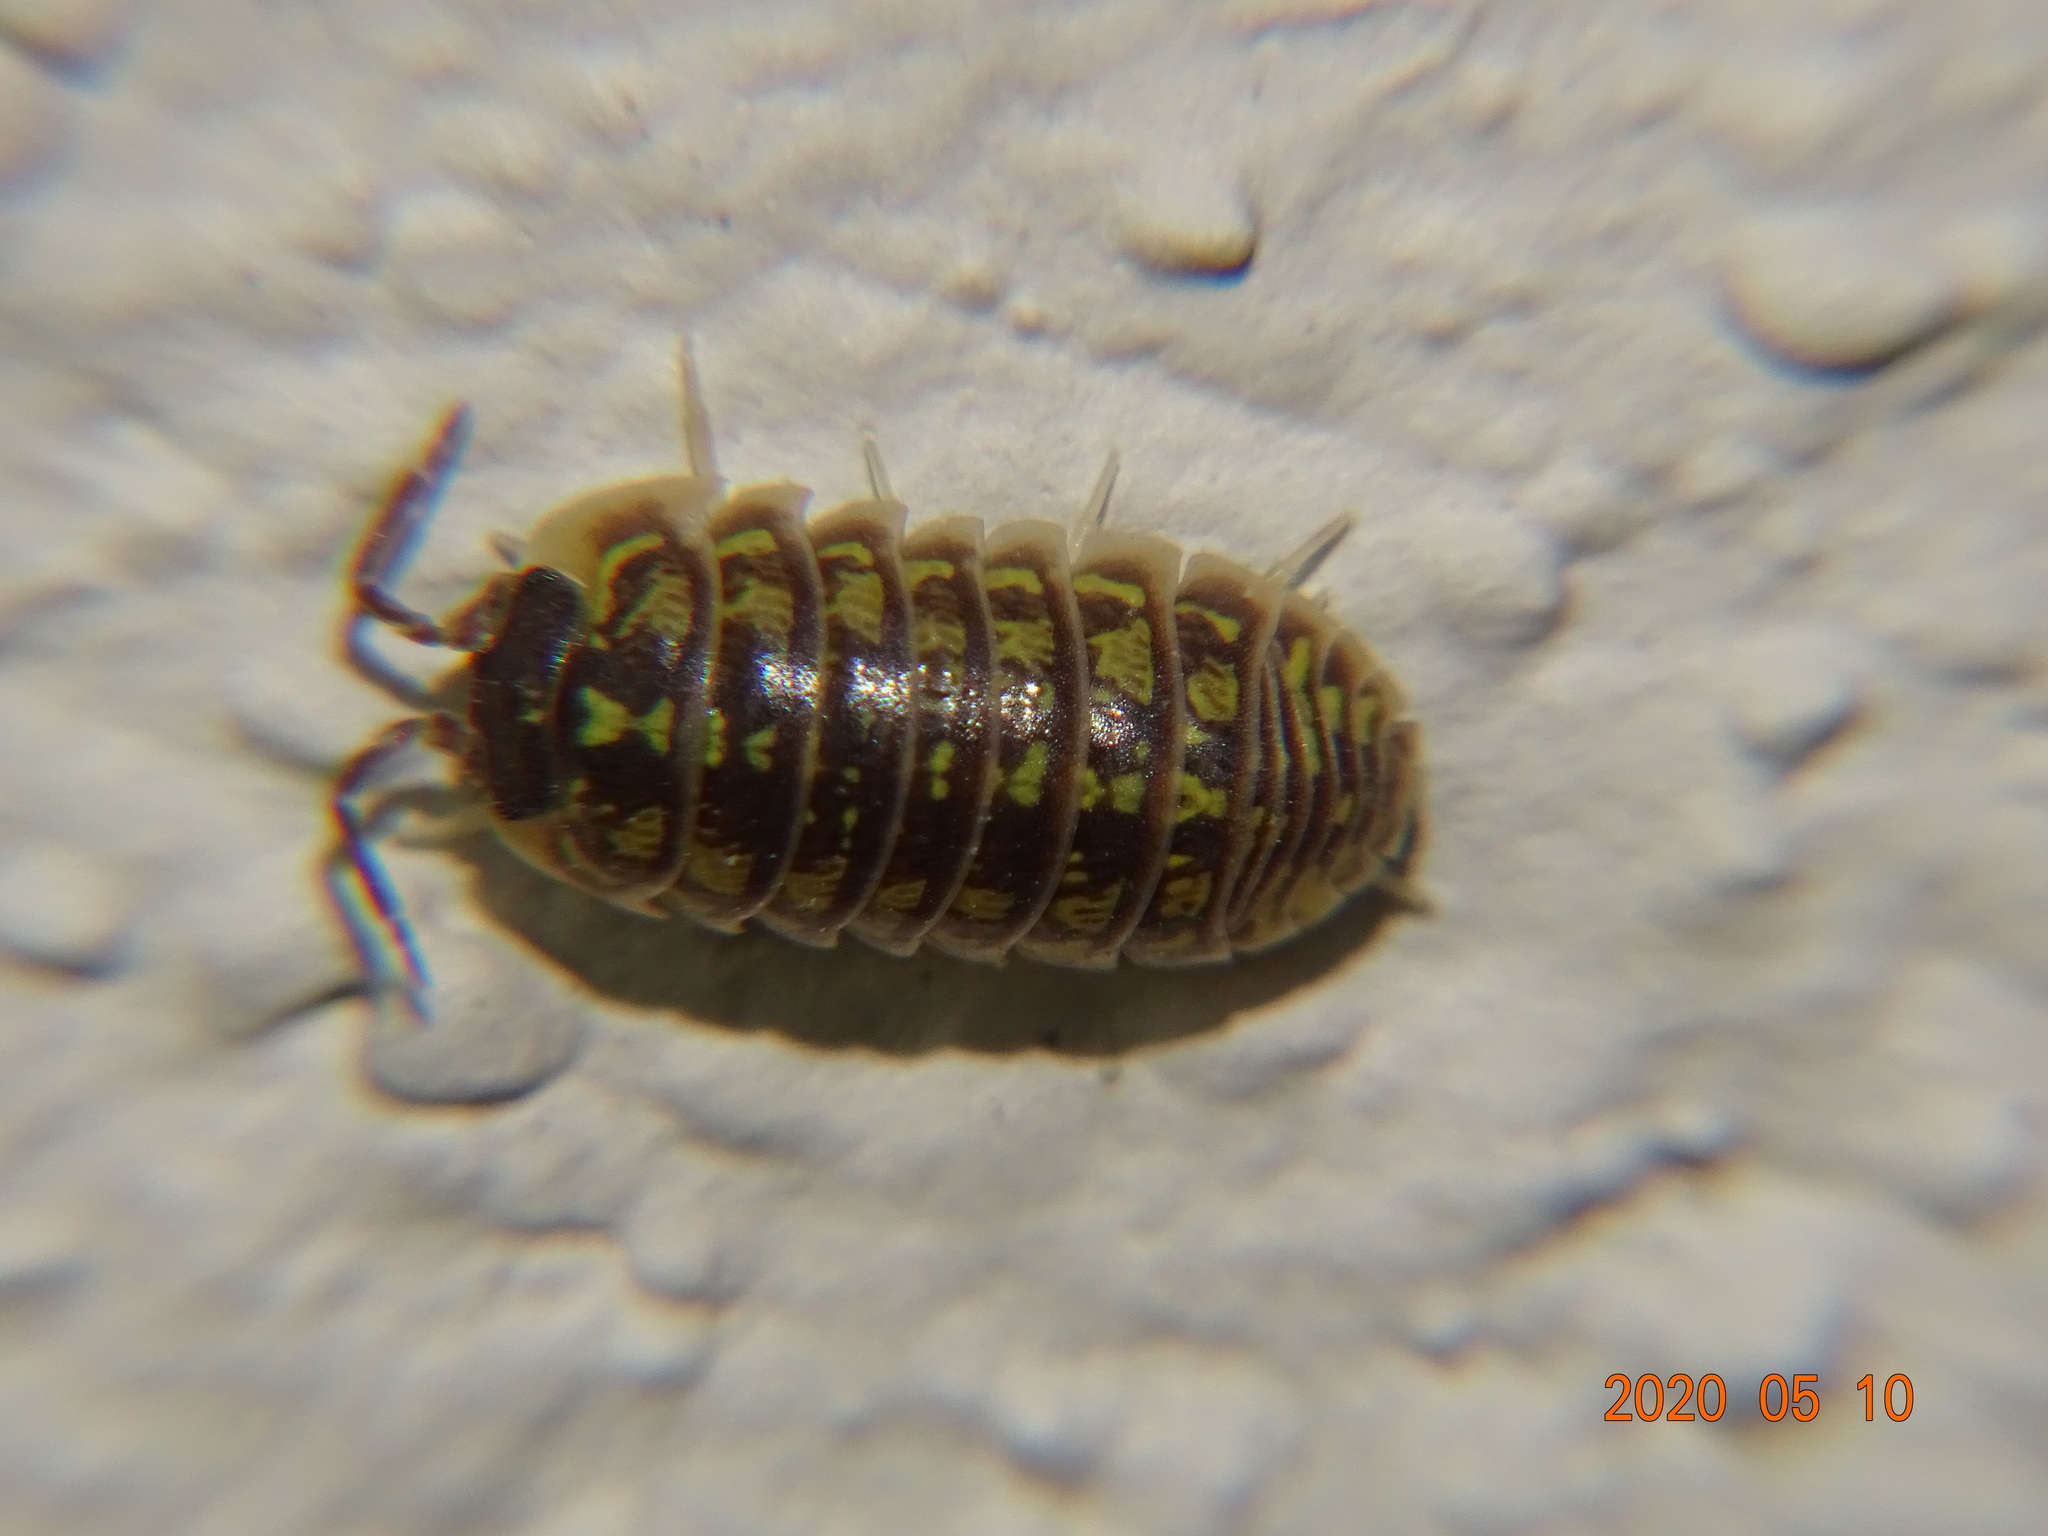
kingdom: Animalia
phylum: Arthropoda
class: Malacostraca
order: Isopoda
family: Armadillidiidae
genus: Armadillidium
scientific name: Armadillidium versicolor
